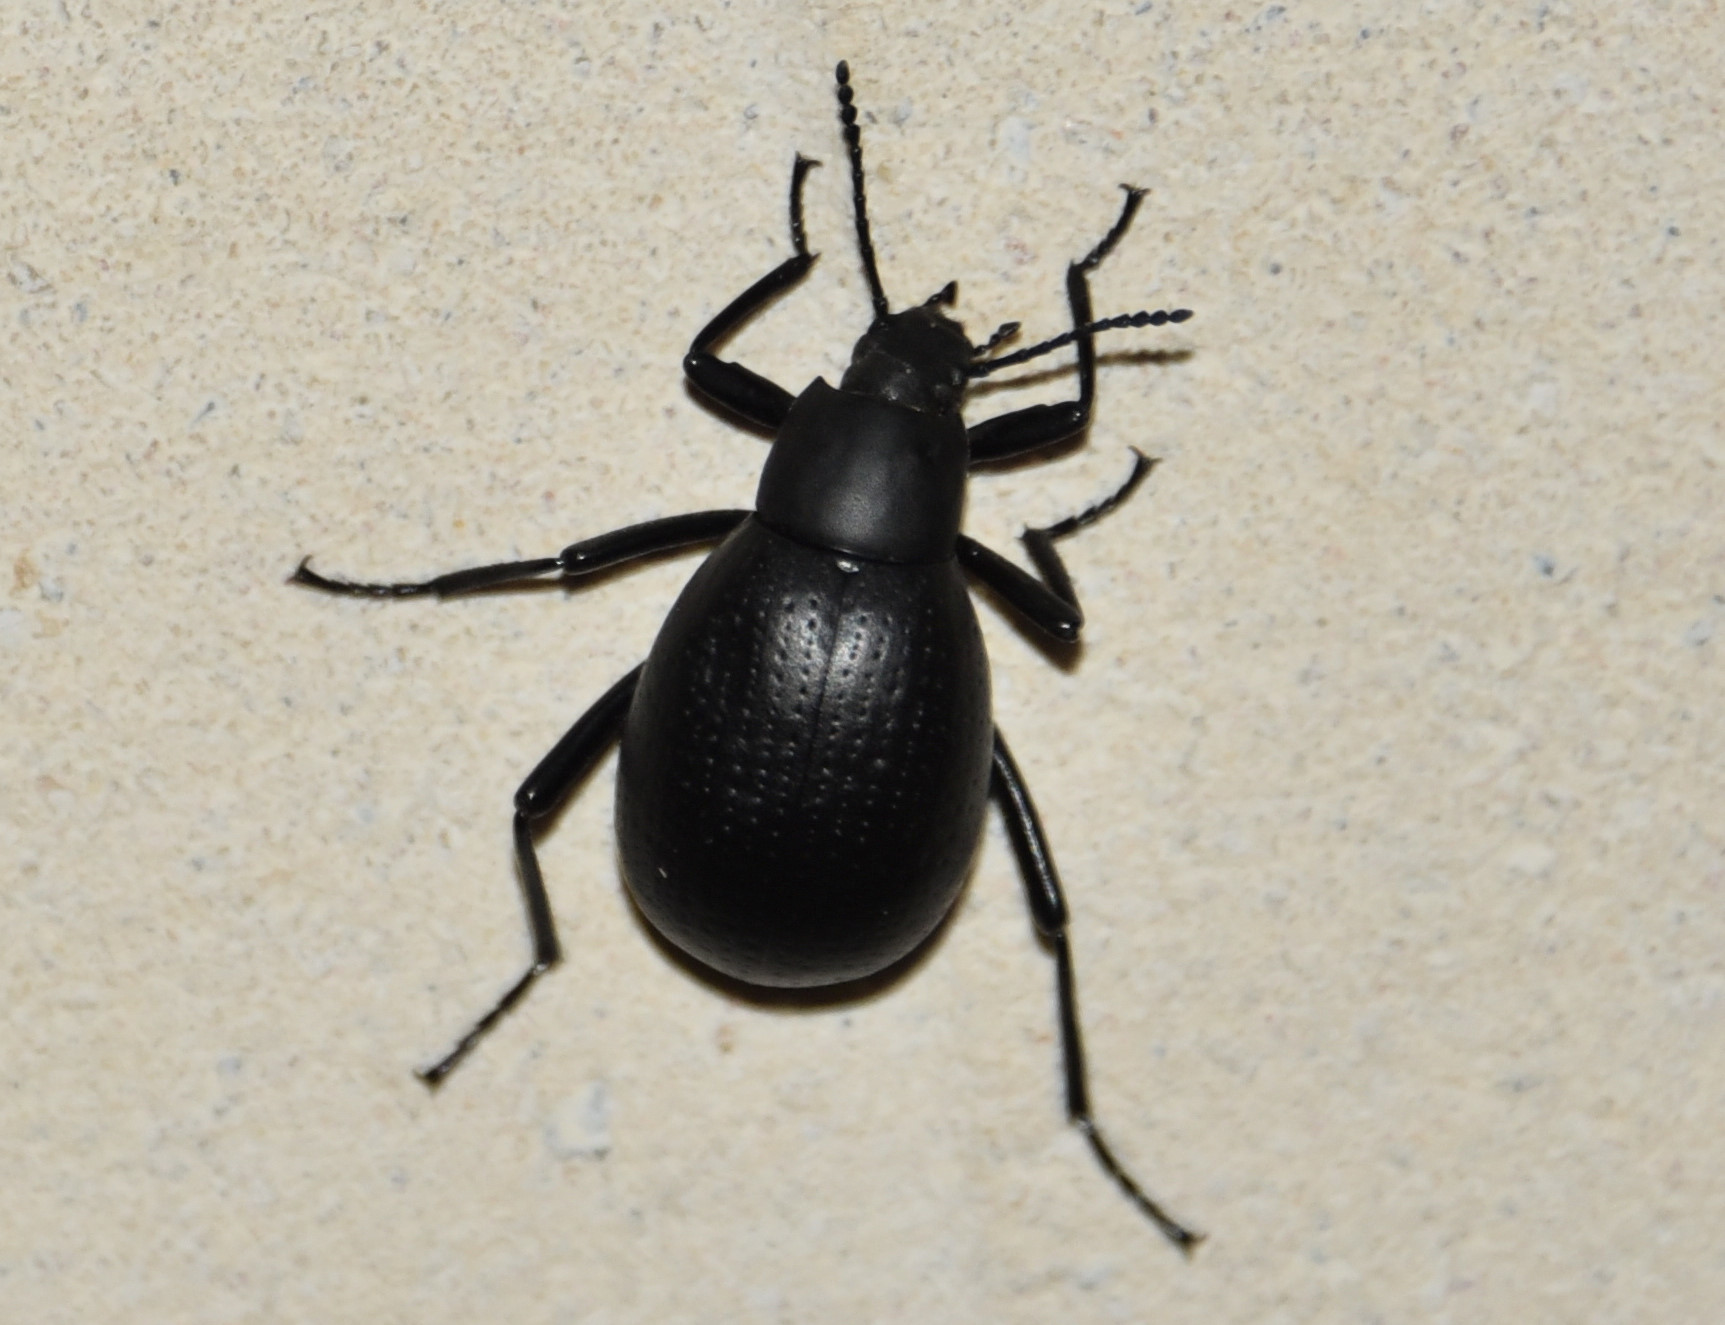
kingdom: Animalia
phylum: Arthropoda
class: Insecta
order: Coleoptera
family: Tenebrionidae
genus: Eleodes
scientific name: Eleodes goryi
